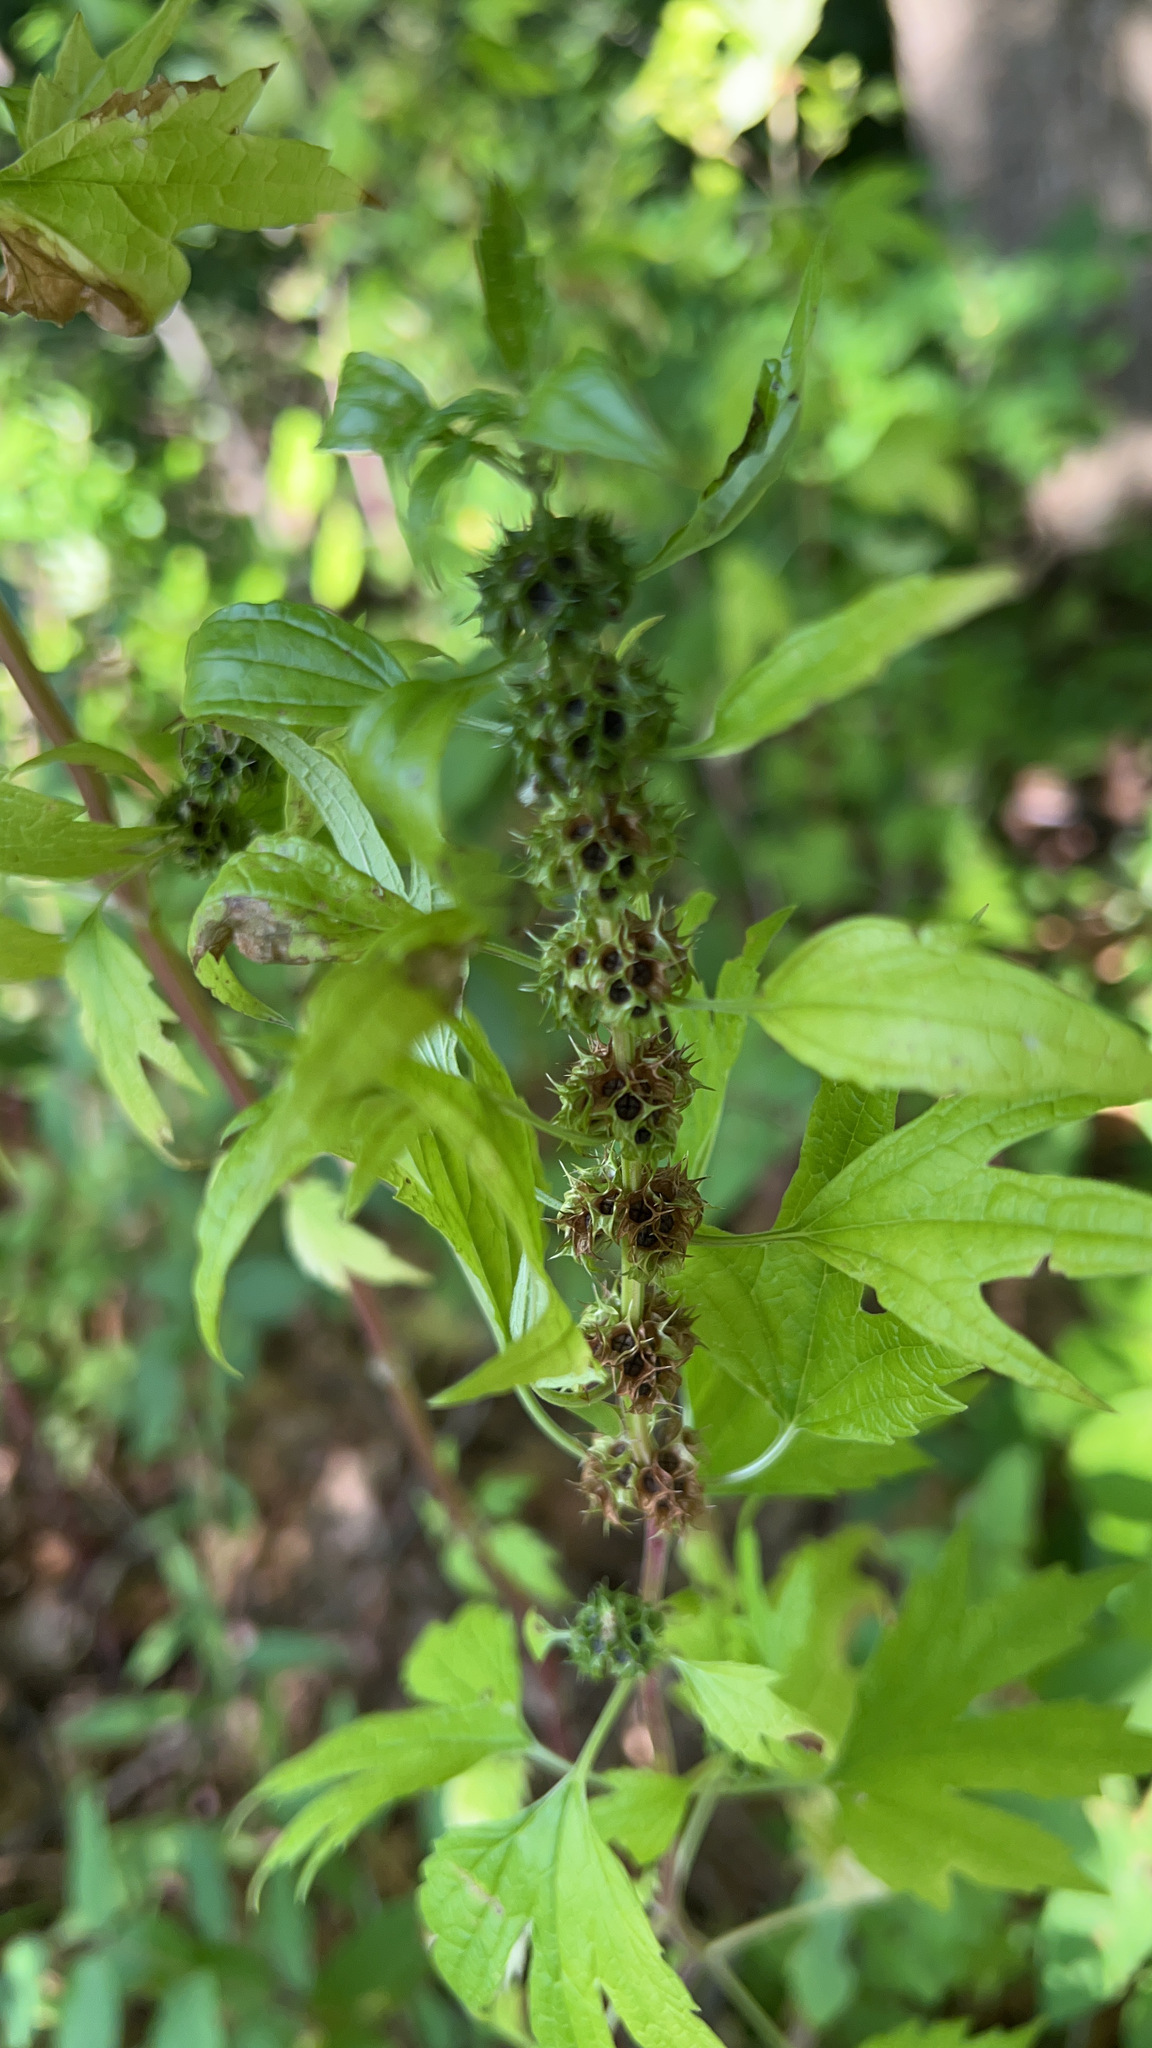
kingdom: Plantae
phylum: Tracheophyta
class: Magnoliopsida
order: Lamiales
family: Lamiaceae
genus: Leonurus
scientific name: Leonurus cardiaca
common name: Motherwort
